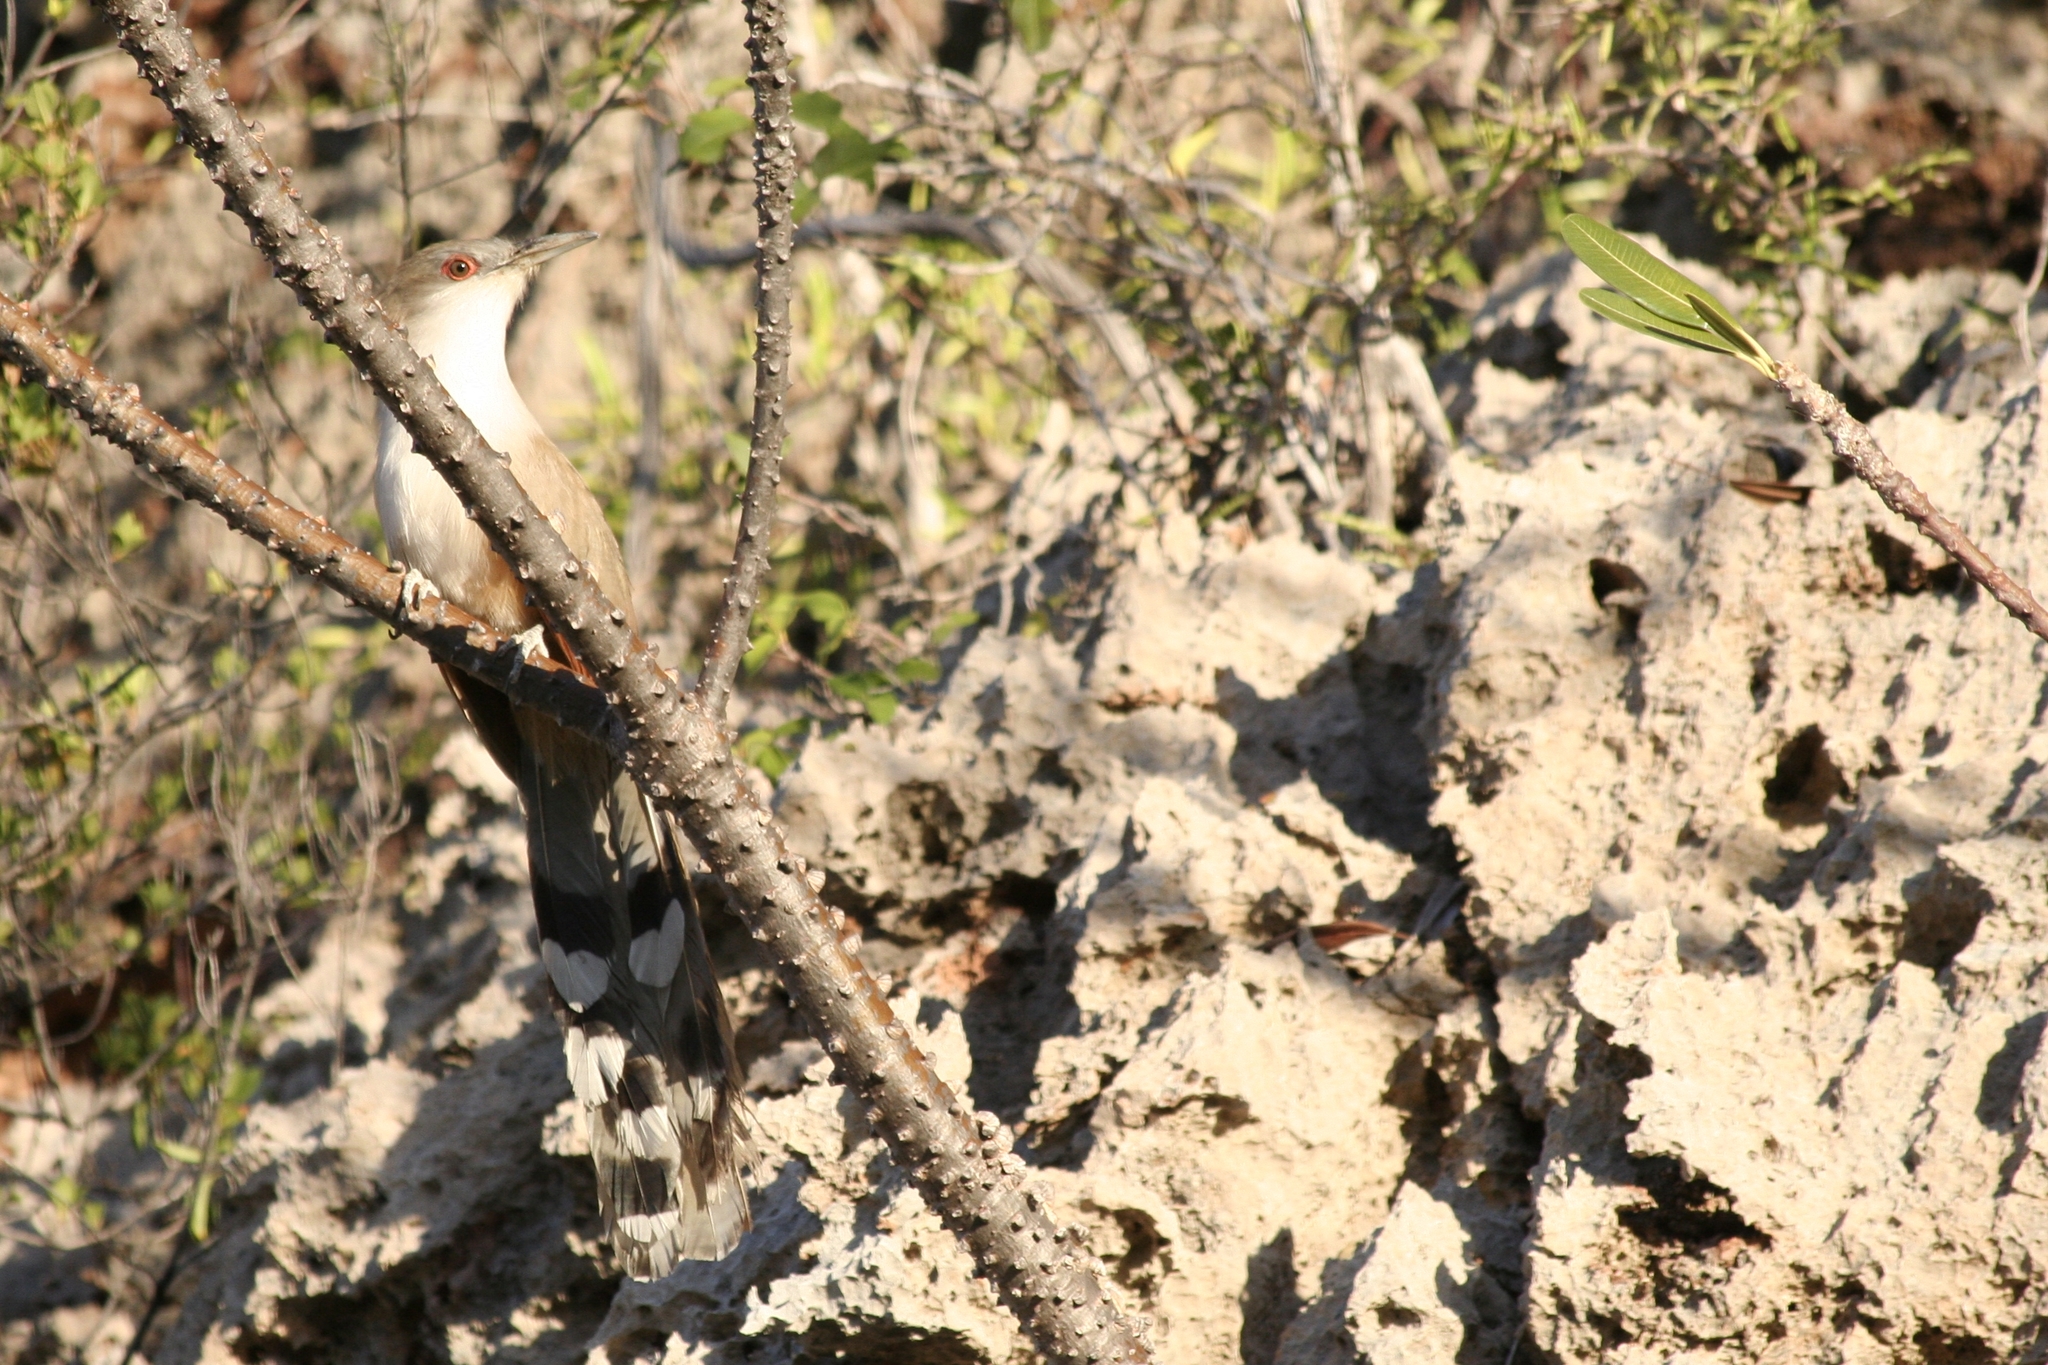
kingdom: Animalia
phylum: Chordata
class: Aves
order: Cuculiformes
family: Cuculidae
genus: Saurothera
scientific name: Saurothera merlini
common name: Great lizard-cuckoo
